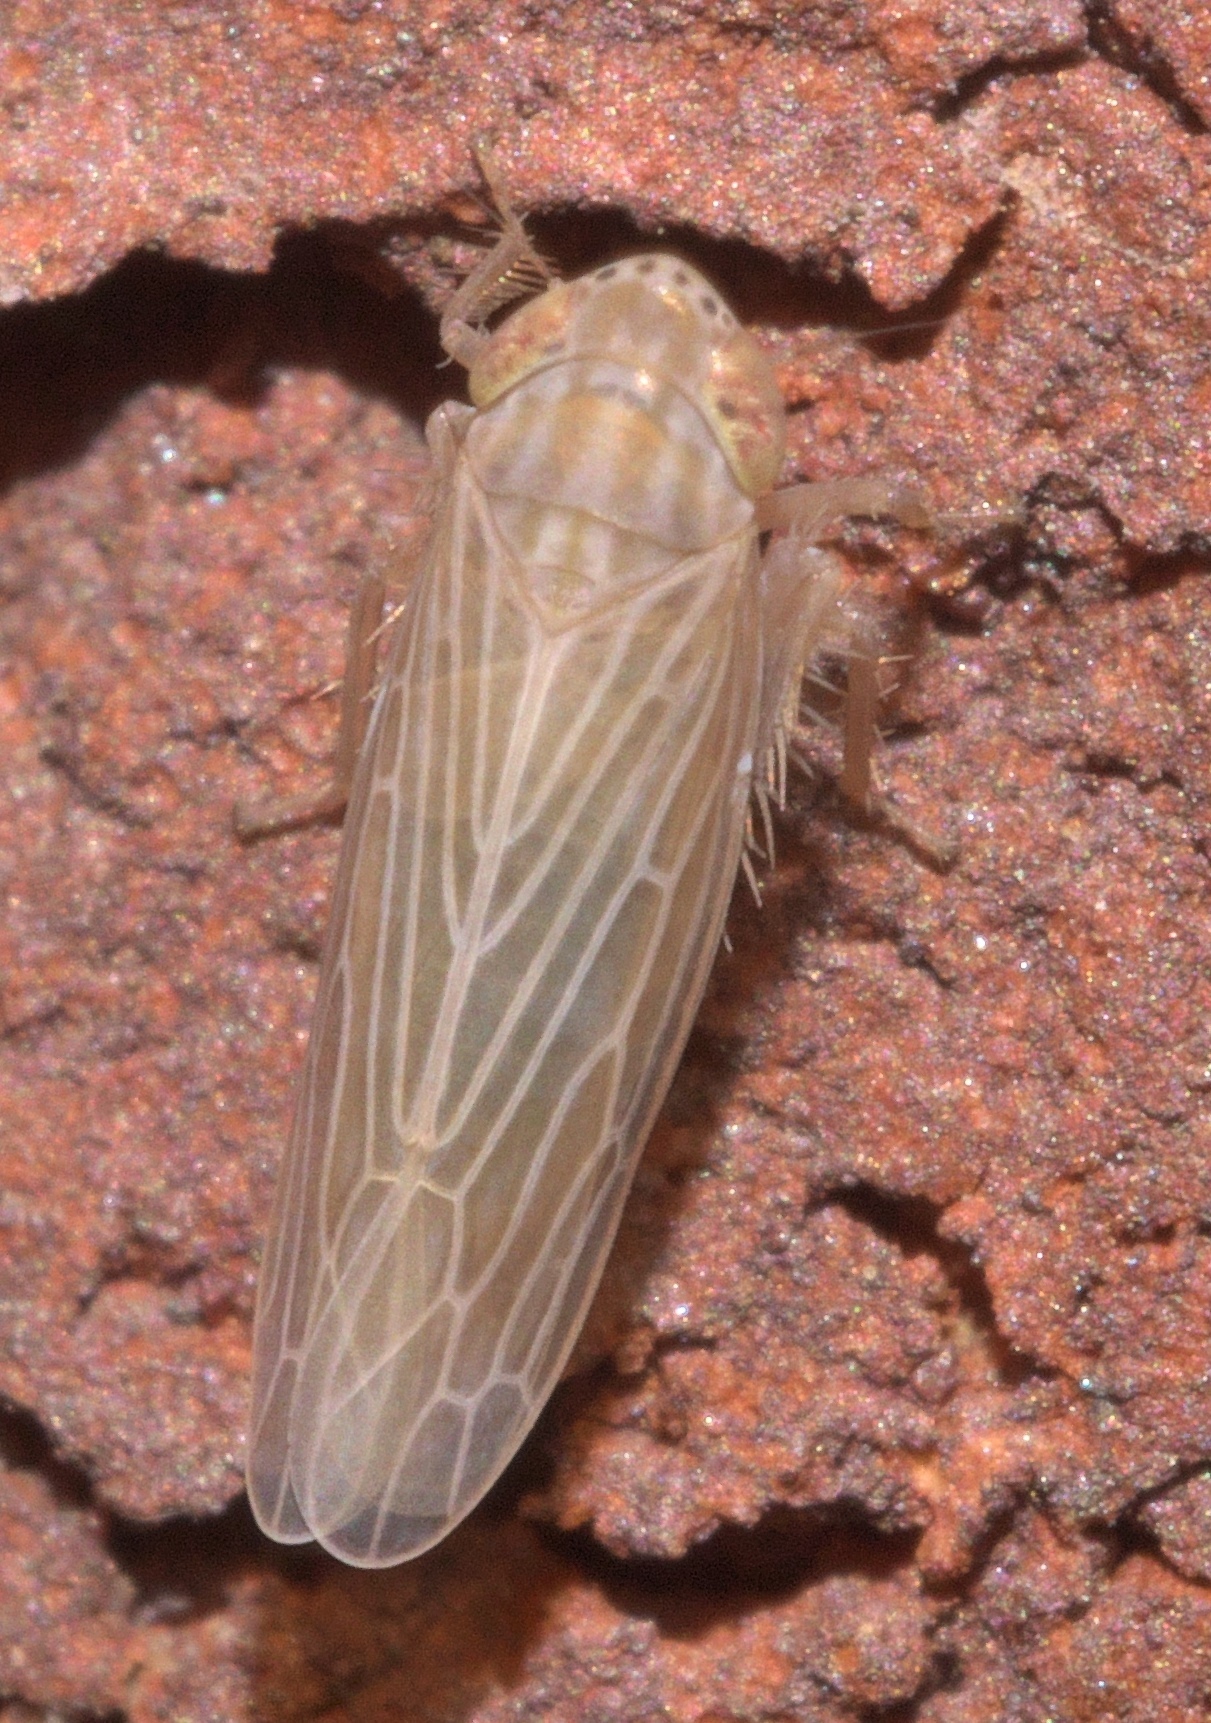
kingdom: Animalia
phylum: Arthropoda
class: Insecta
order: Hemiptera
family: Cicadellidae
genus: Graminella
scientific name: Graminella fitchii
